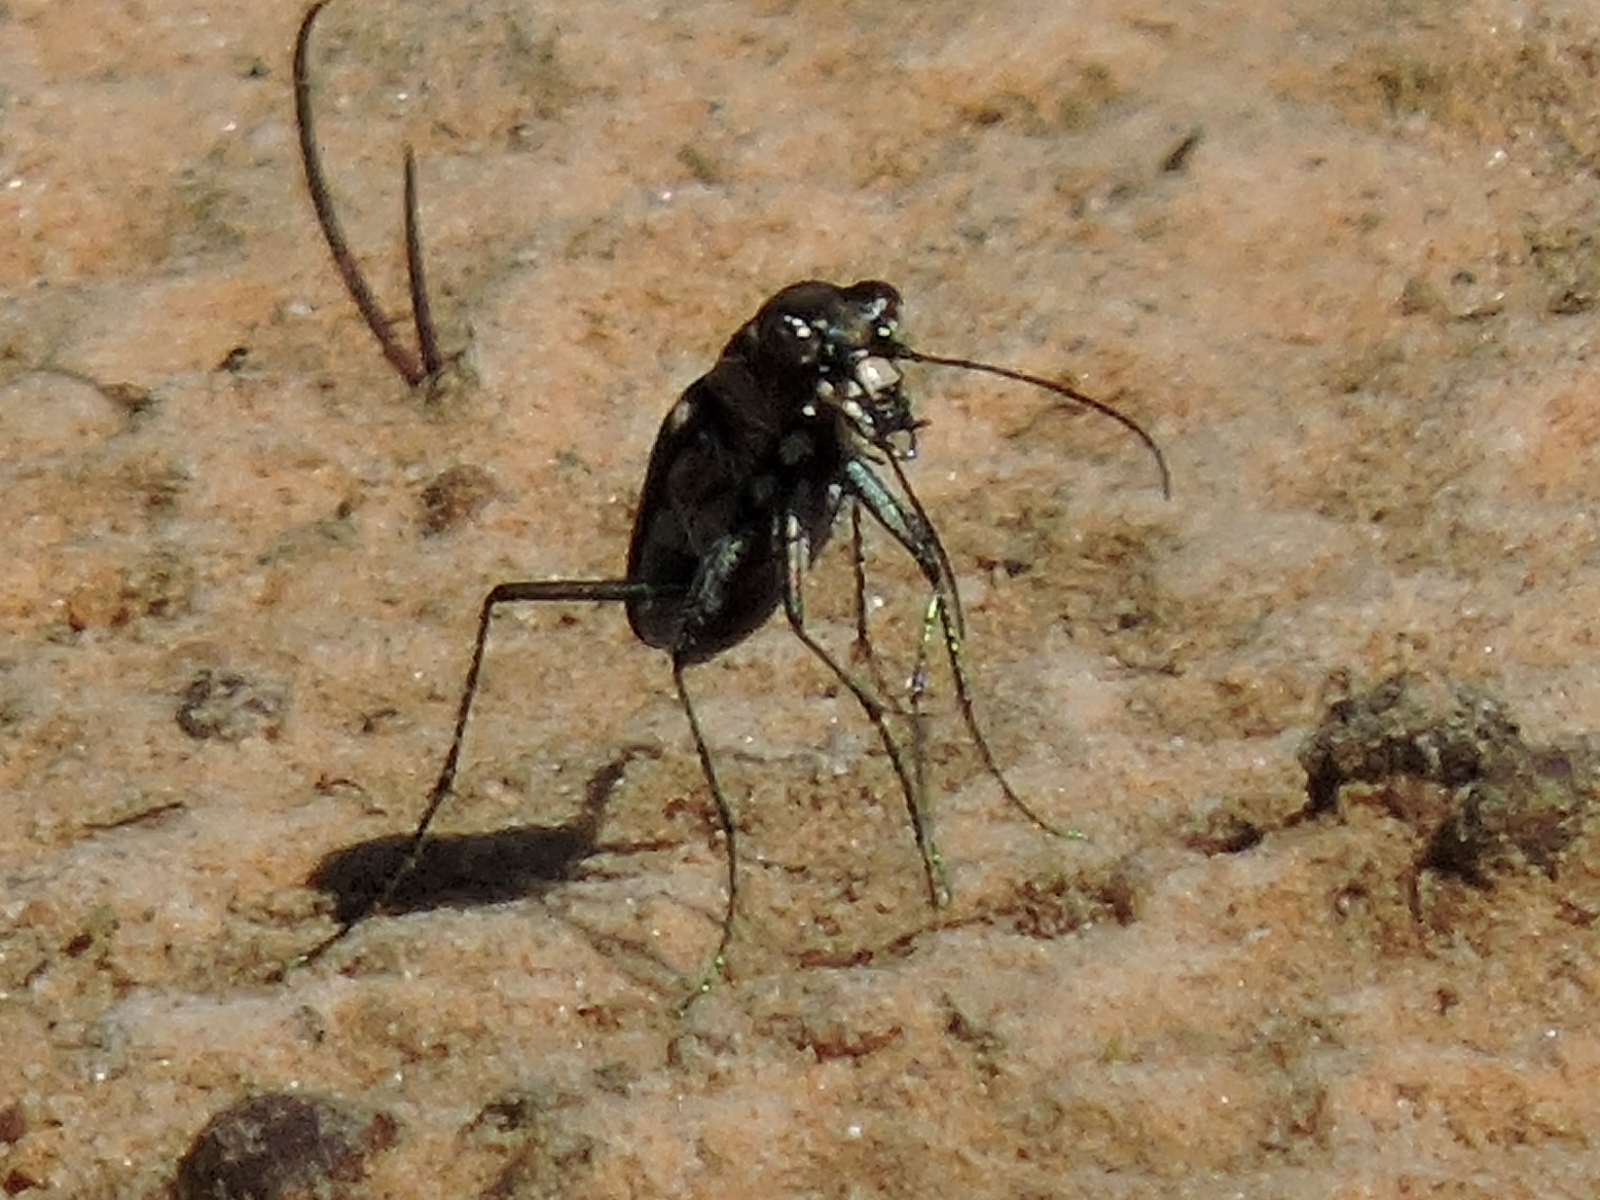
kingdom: Animalia
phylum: Arthropoda
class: Insecta
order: Coleoptera
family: Carabidae
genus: Cicindela
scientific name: Cicindela ocellata
